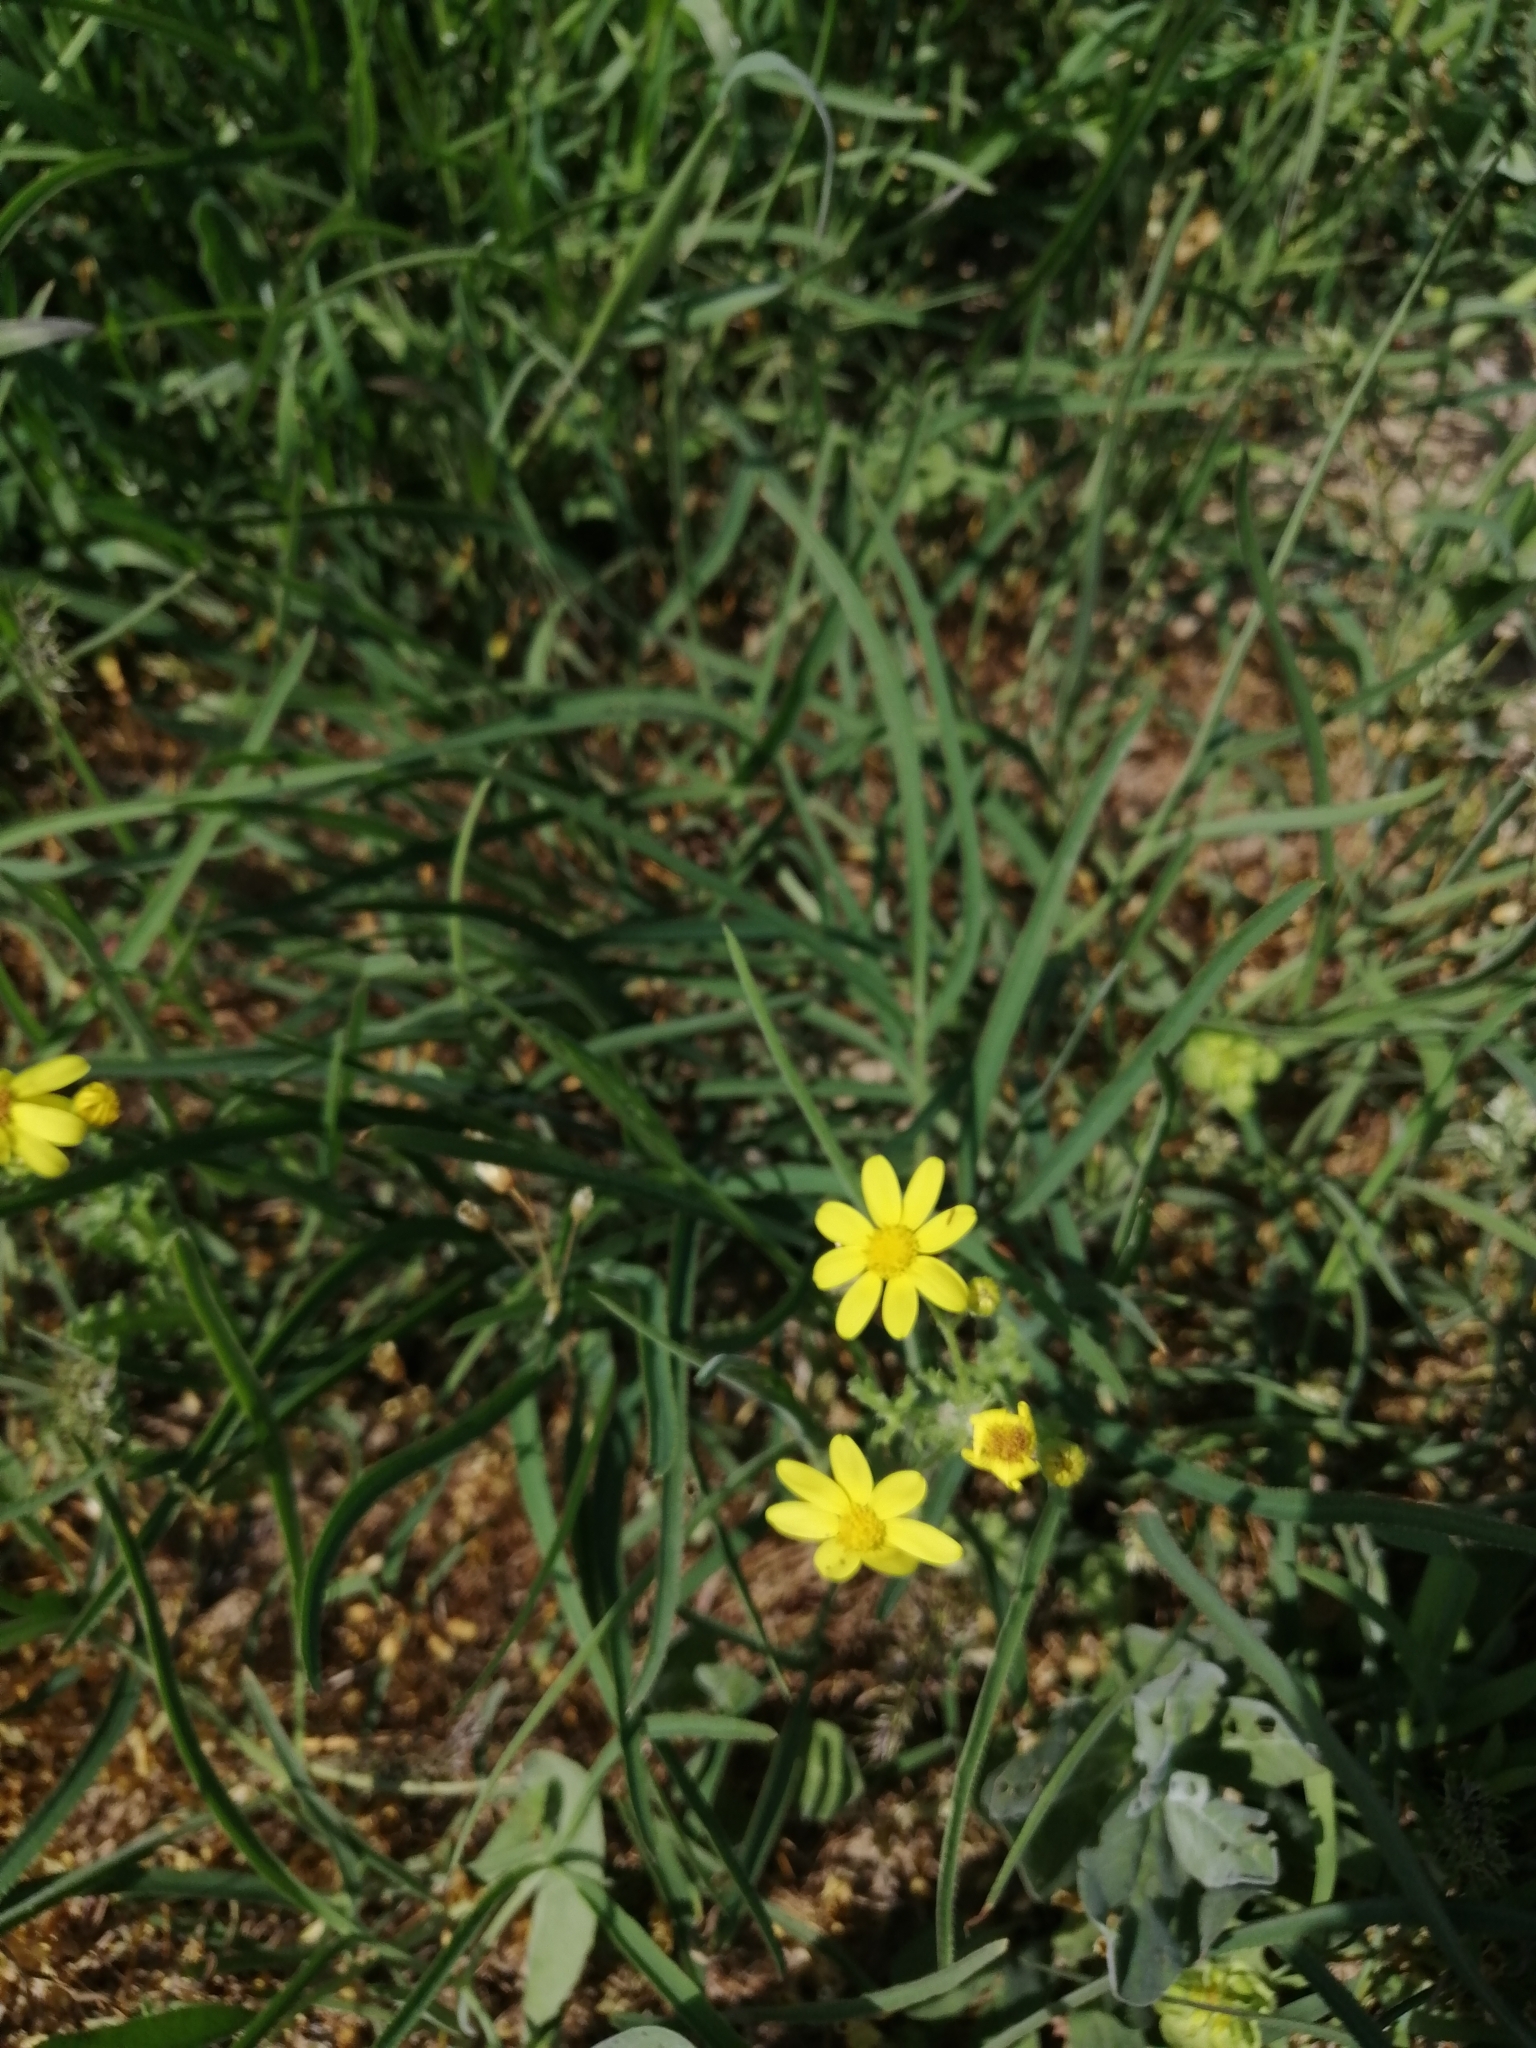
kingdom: Plantae
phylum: Tracheophyta
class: Magnoliopsida
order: Asterales
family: Asteraceae
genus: Senecio
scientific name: Senecio vernalis
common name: Eastern groundsel
